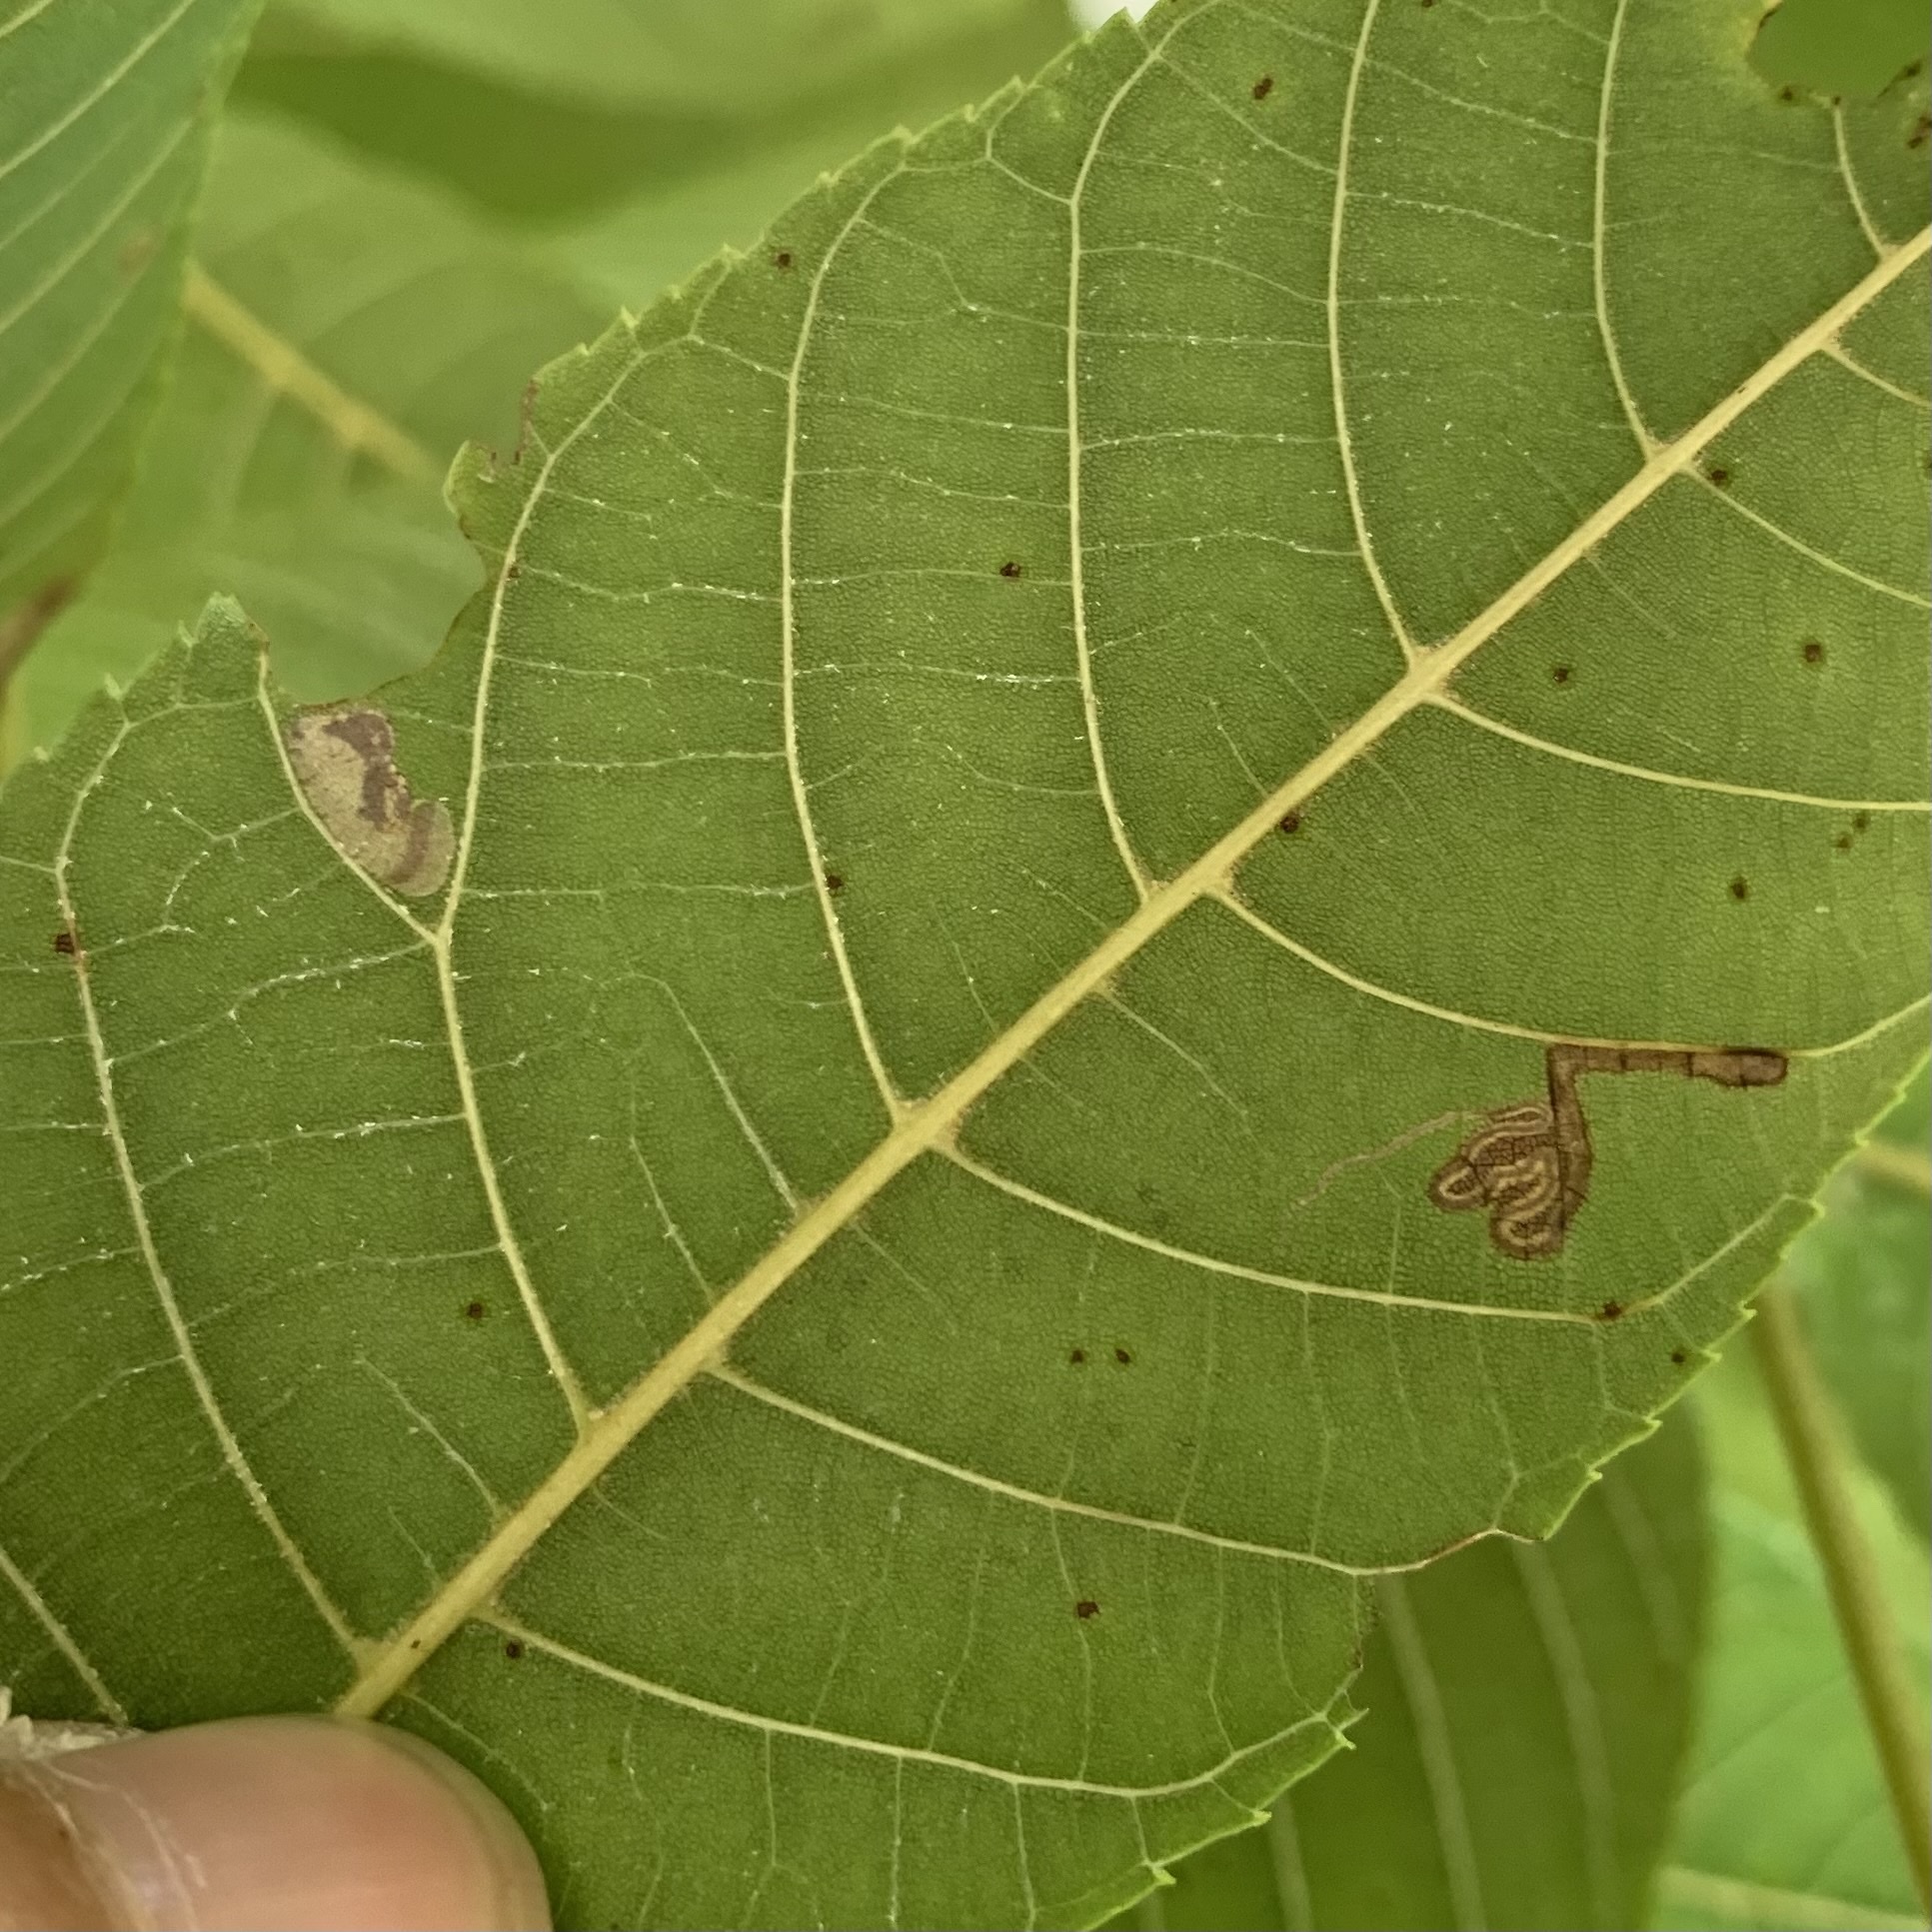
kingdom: Animalia
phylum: Arthropoda
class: Insecta
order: Lepidoptera
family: Nepticulidae
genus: Stigmella
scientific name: Stigmella juglandifoliella
